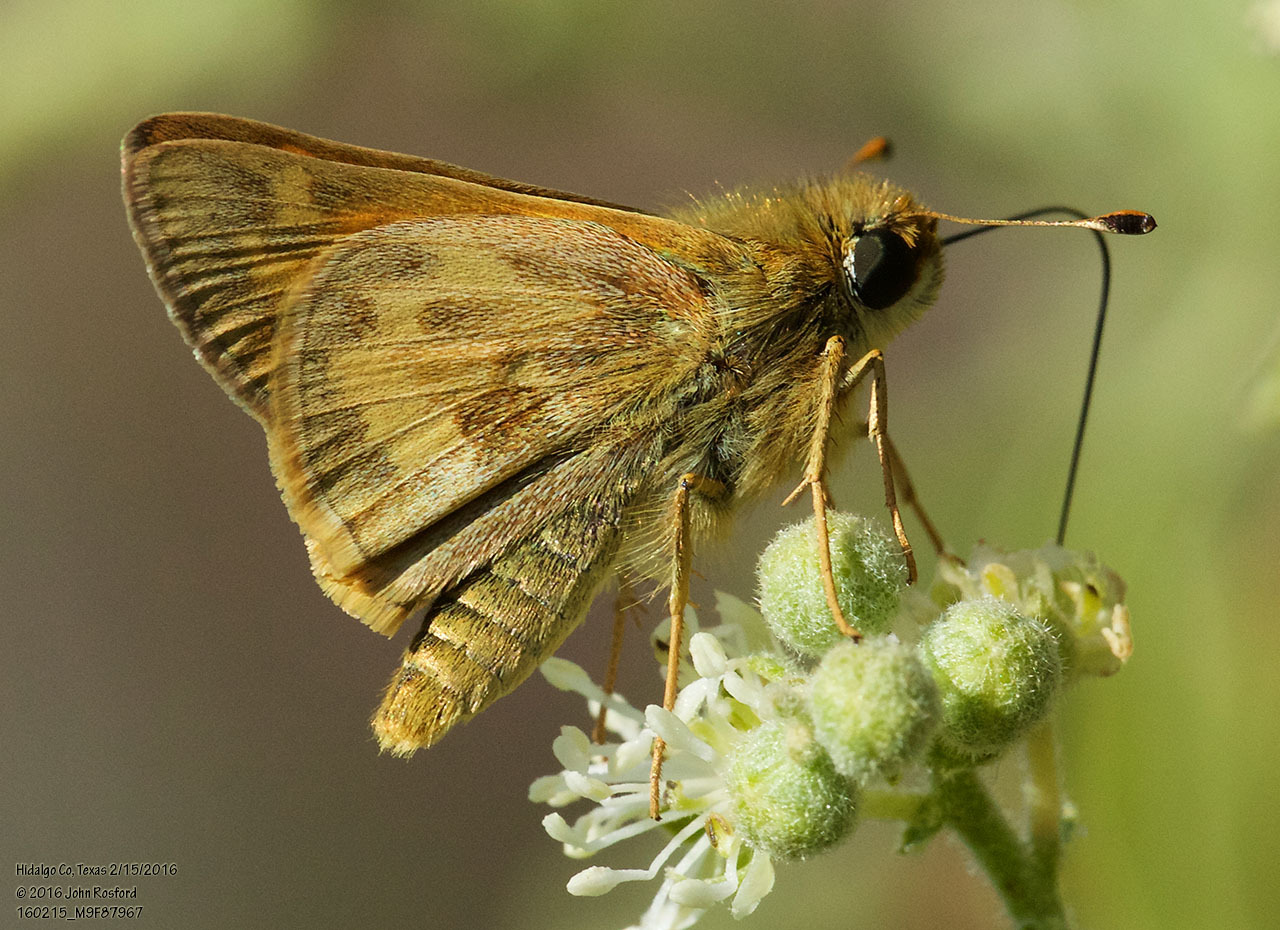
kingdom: Animalia
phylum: Arthropoda
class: Insecta
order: Lepidoptera
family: Hesperiidae
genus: Atalopedes
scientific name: Atalopedes
